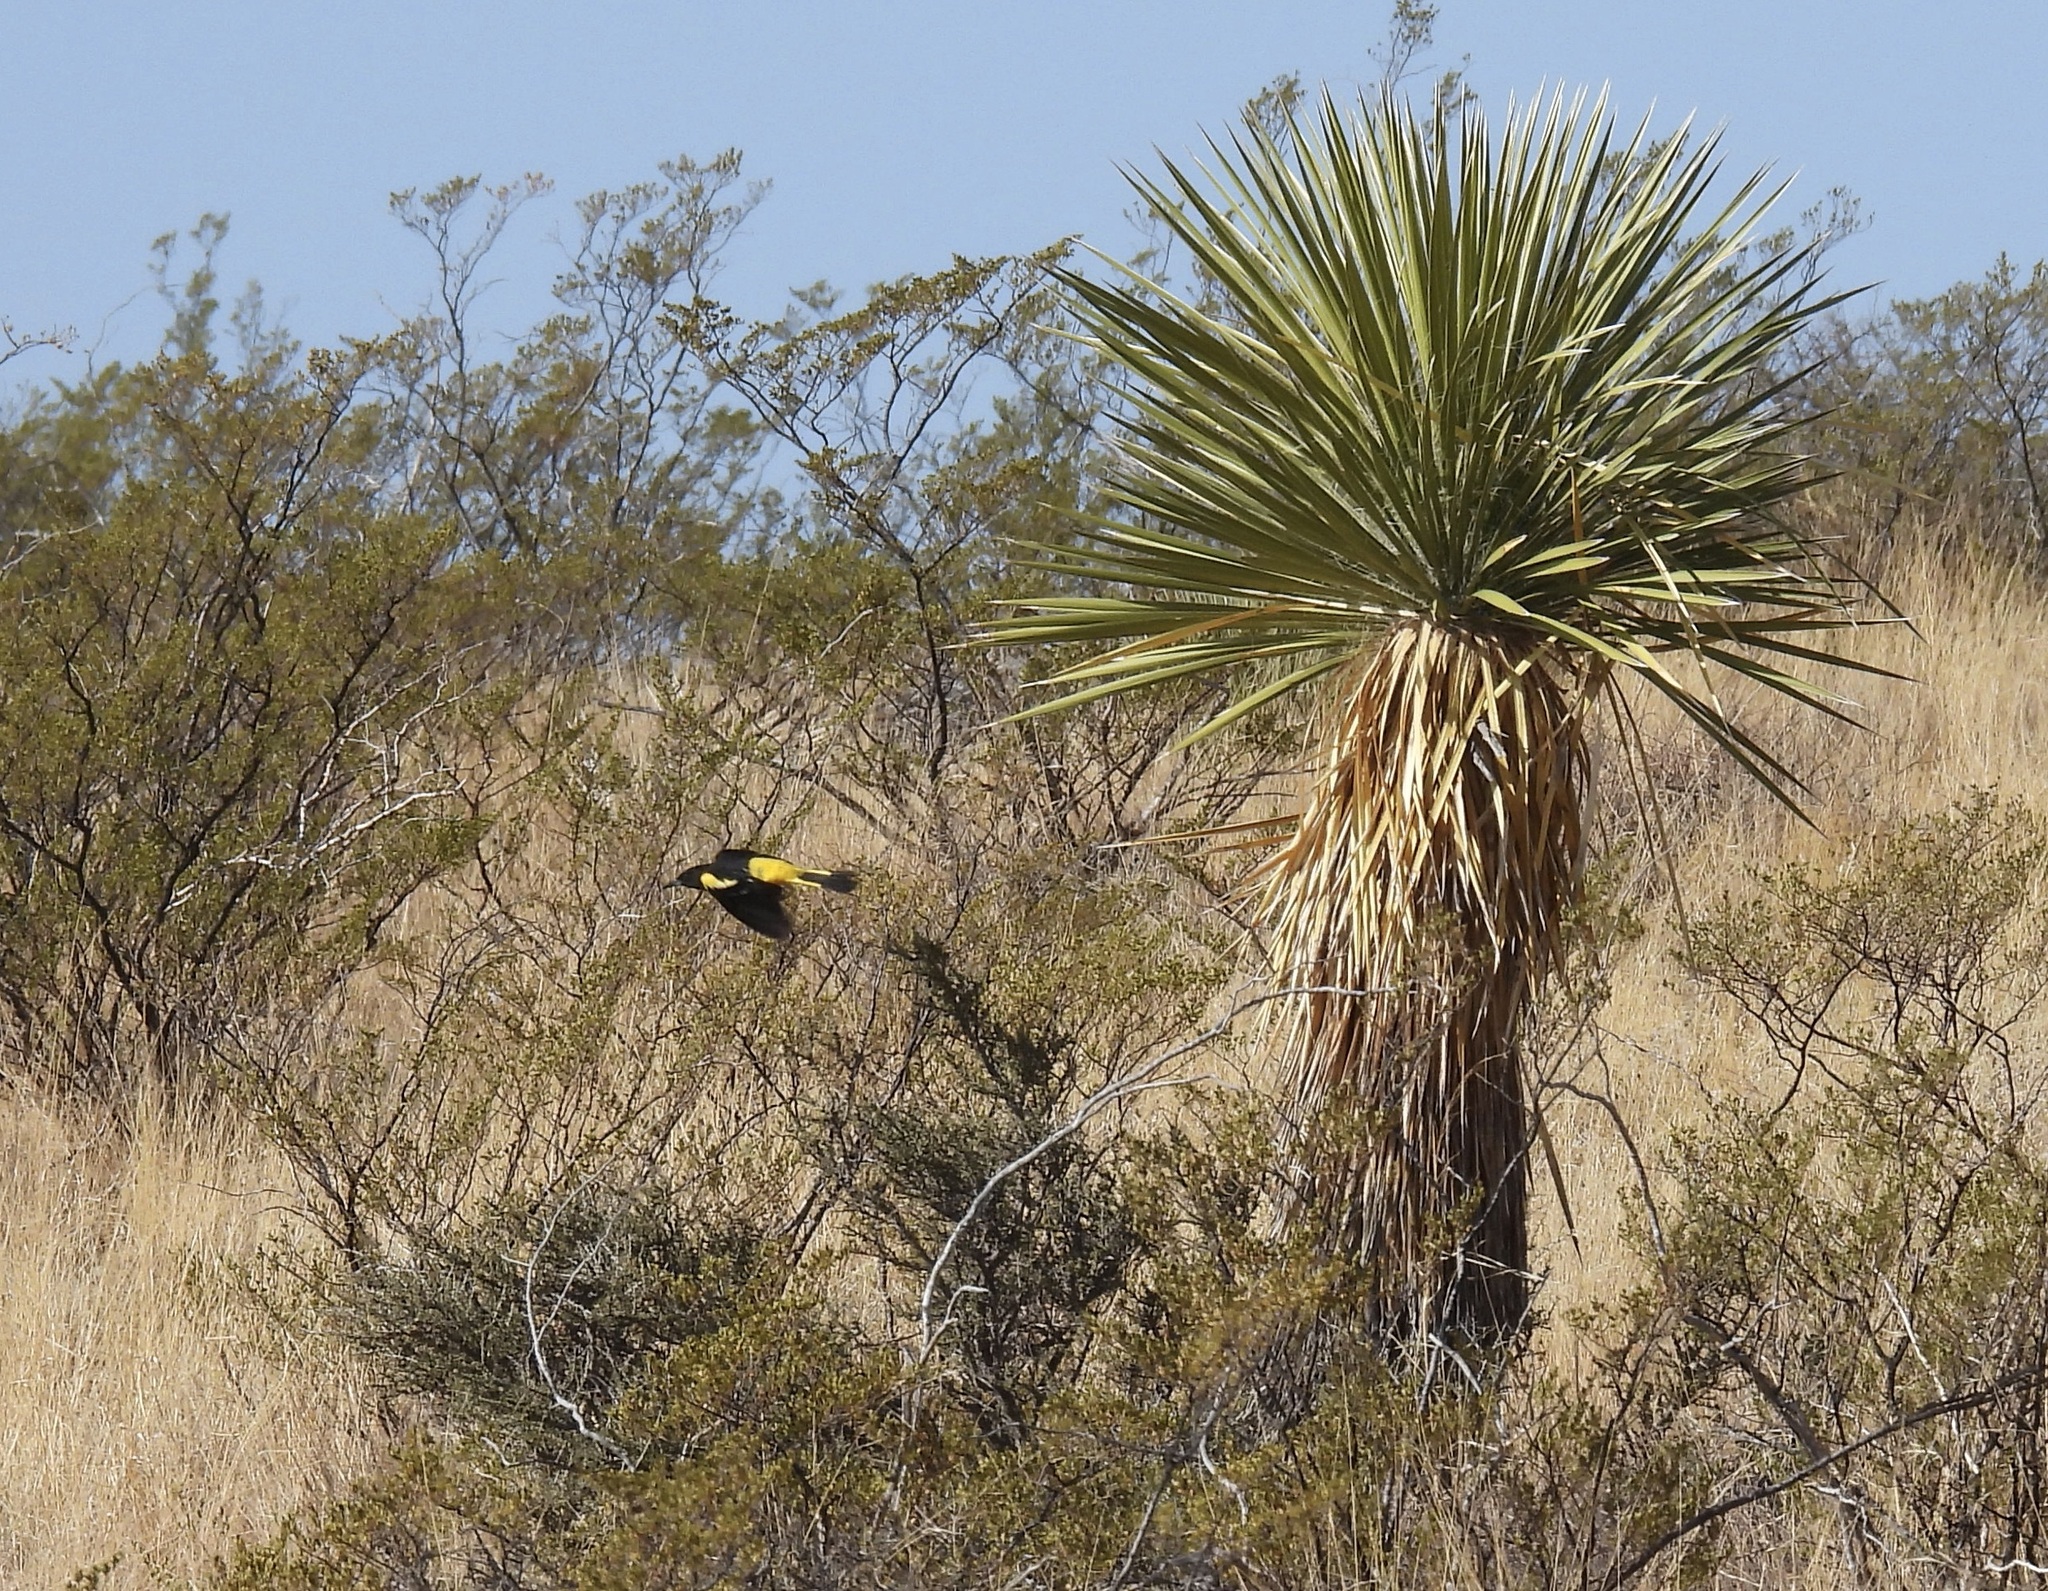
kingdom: Animalia
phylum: Chordata
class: Aves
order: Passeriformes
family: Icteridae
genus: Icterus
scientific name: Icterus parisorum
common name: Scott's oriole
